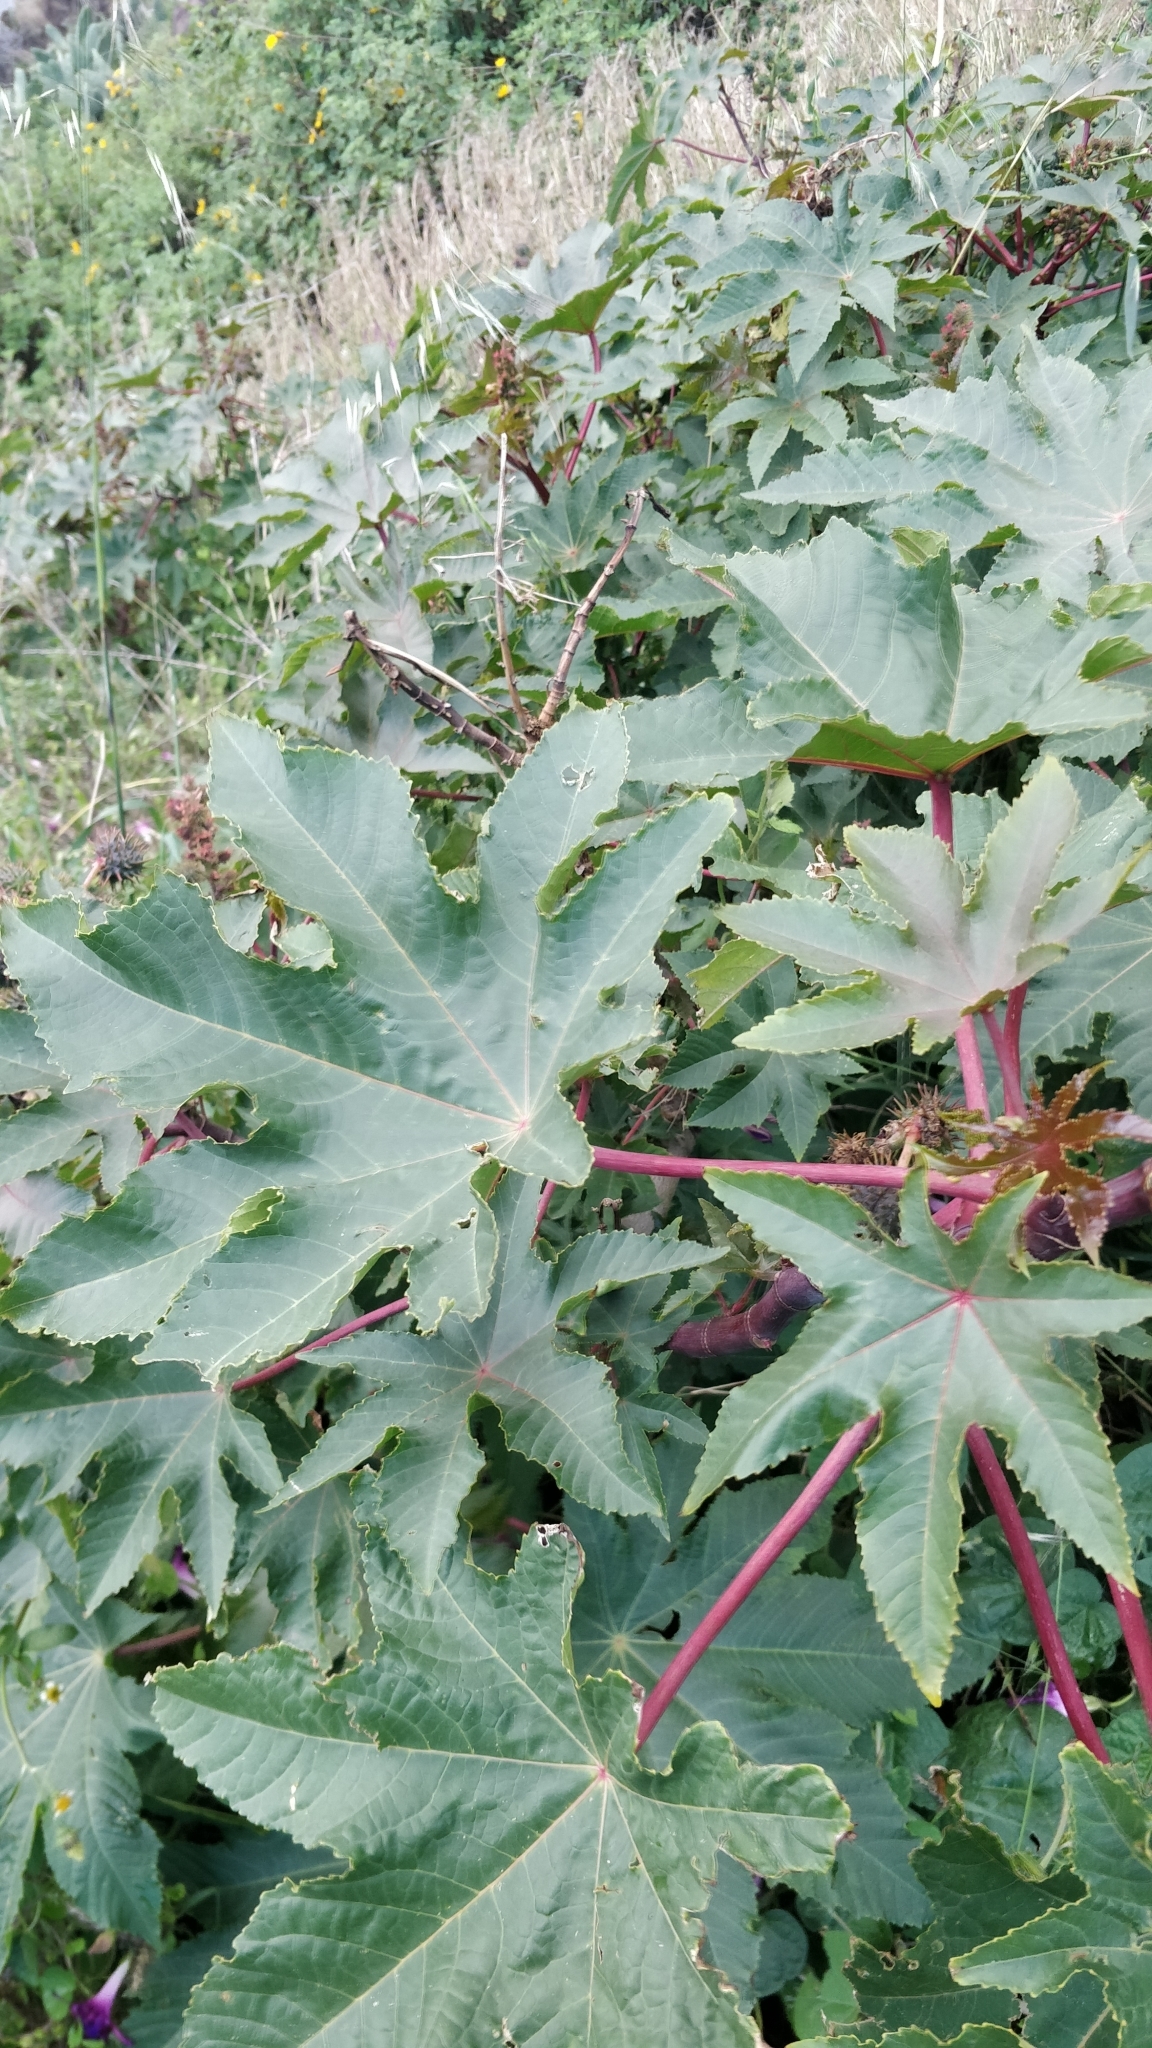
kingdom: Plantae
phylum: Tracheophyta
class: Magnoliopsida
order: Malpighiales
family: Euphorbiaceae
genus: Ricinus
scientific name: Ricinus communis
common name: Castor-oil-plant
